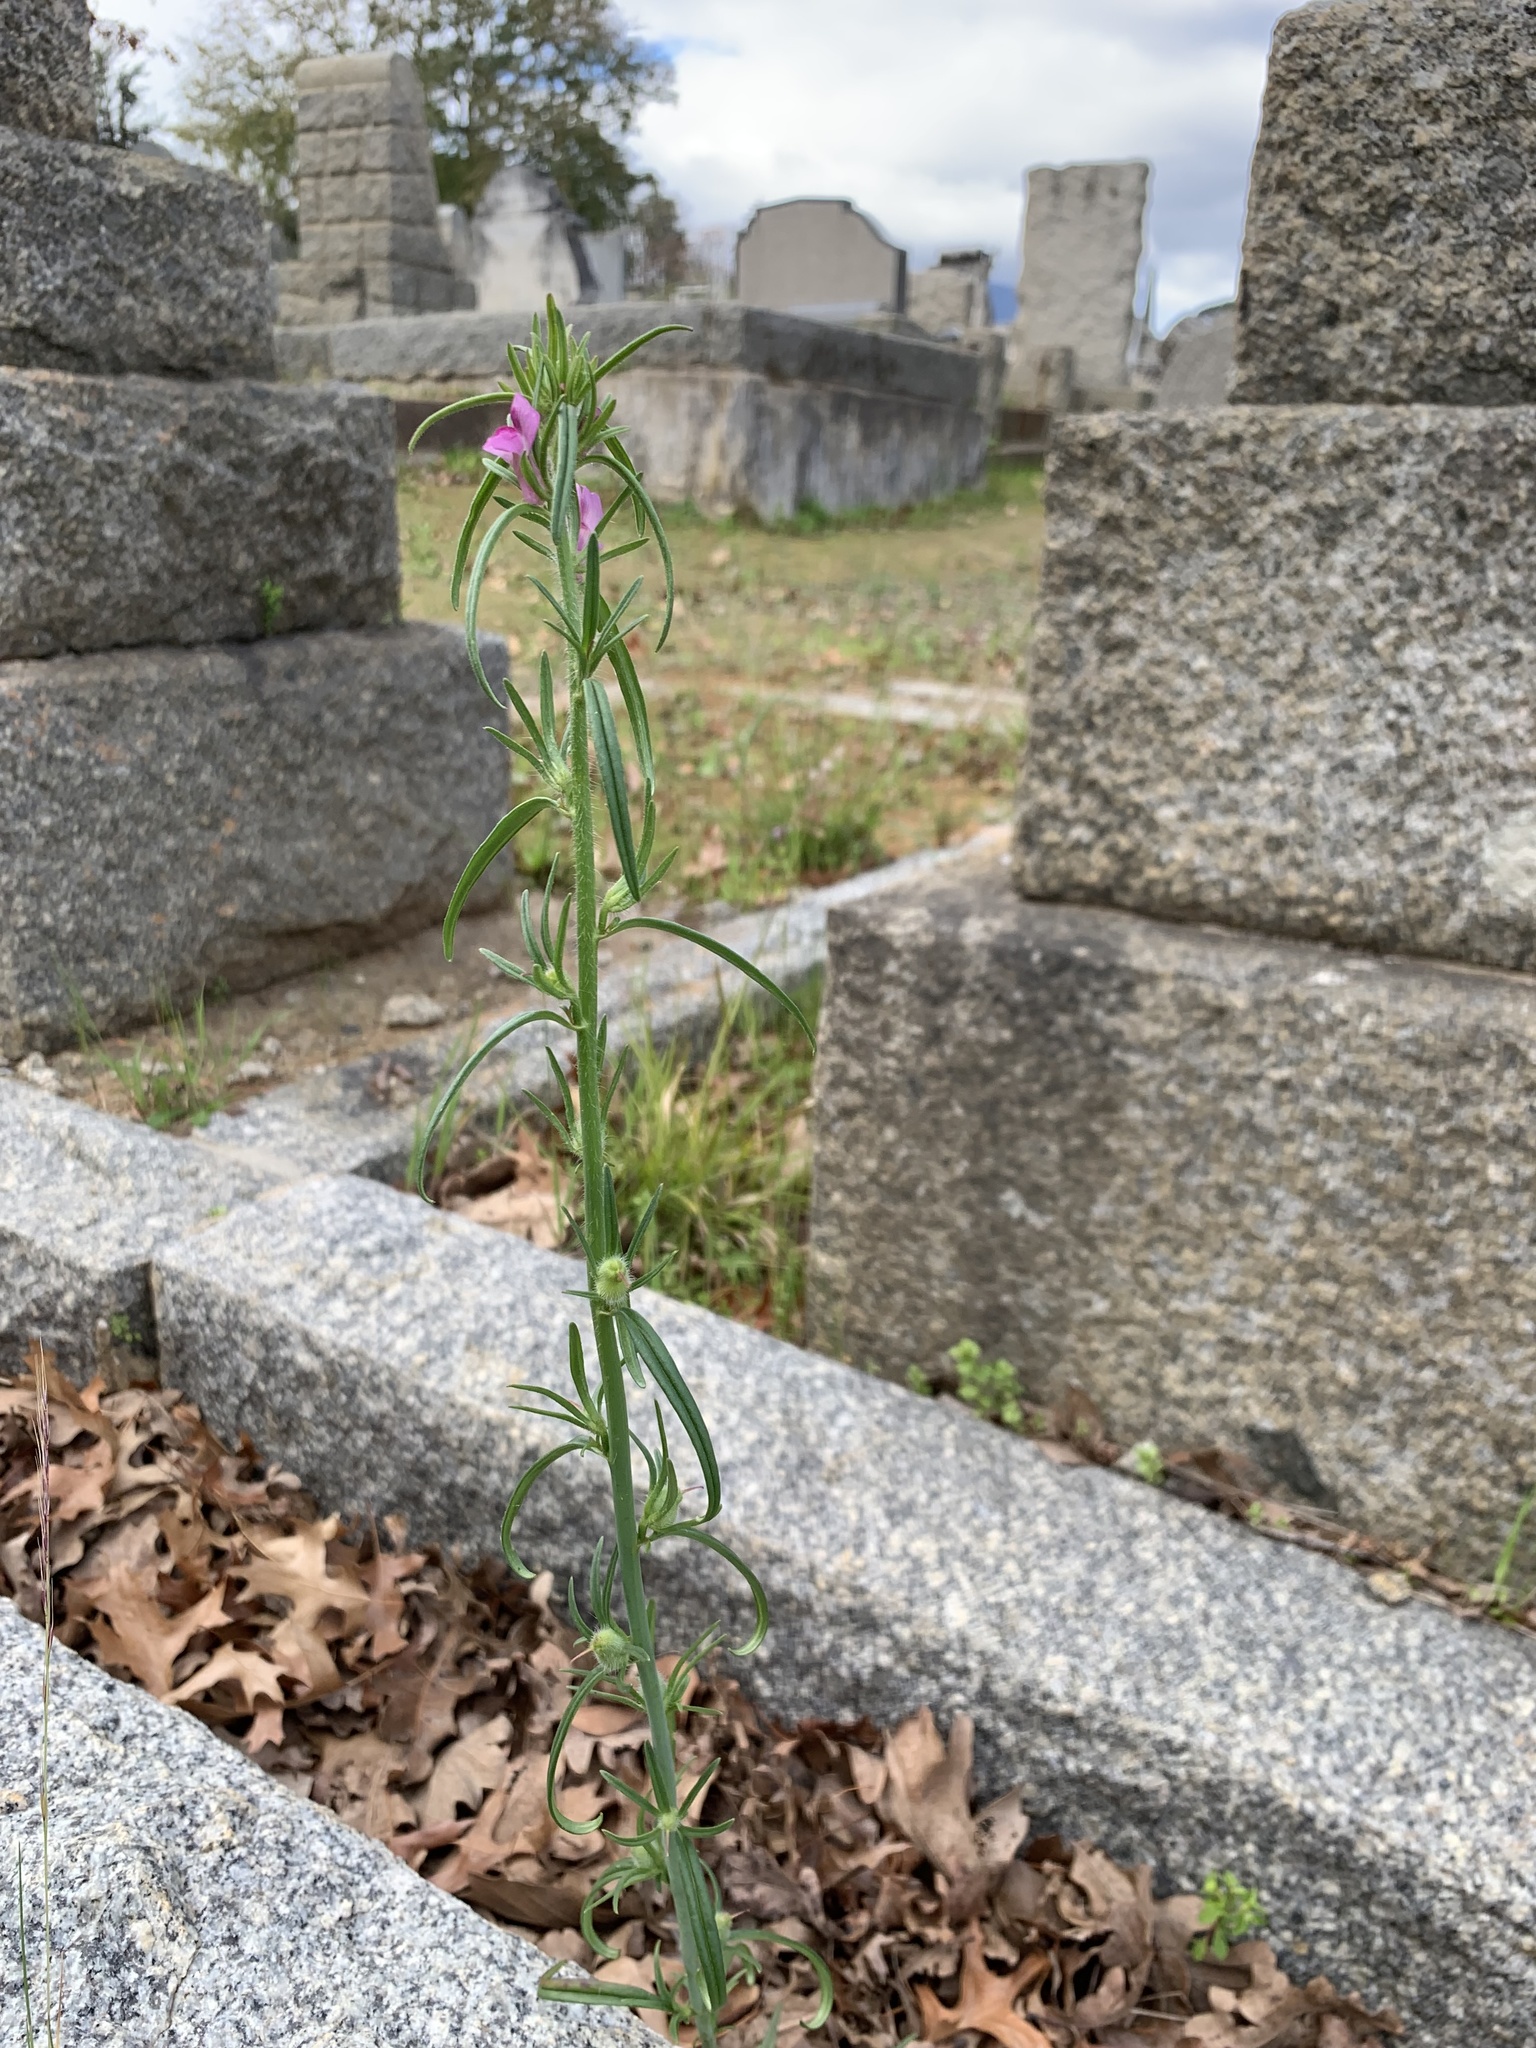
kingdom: Plantae
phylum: Tracheophyta
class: Magnoliopsida
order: Lamiales
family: Plantaginaceae
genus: Misopates
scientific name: Misopates orontium
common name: Weasel's-snout
